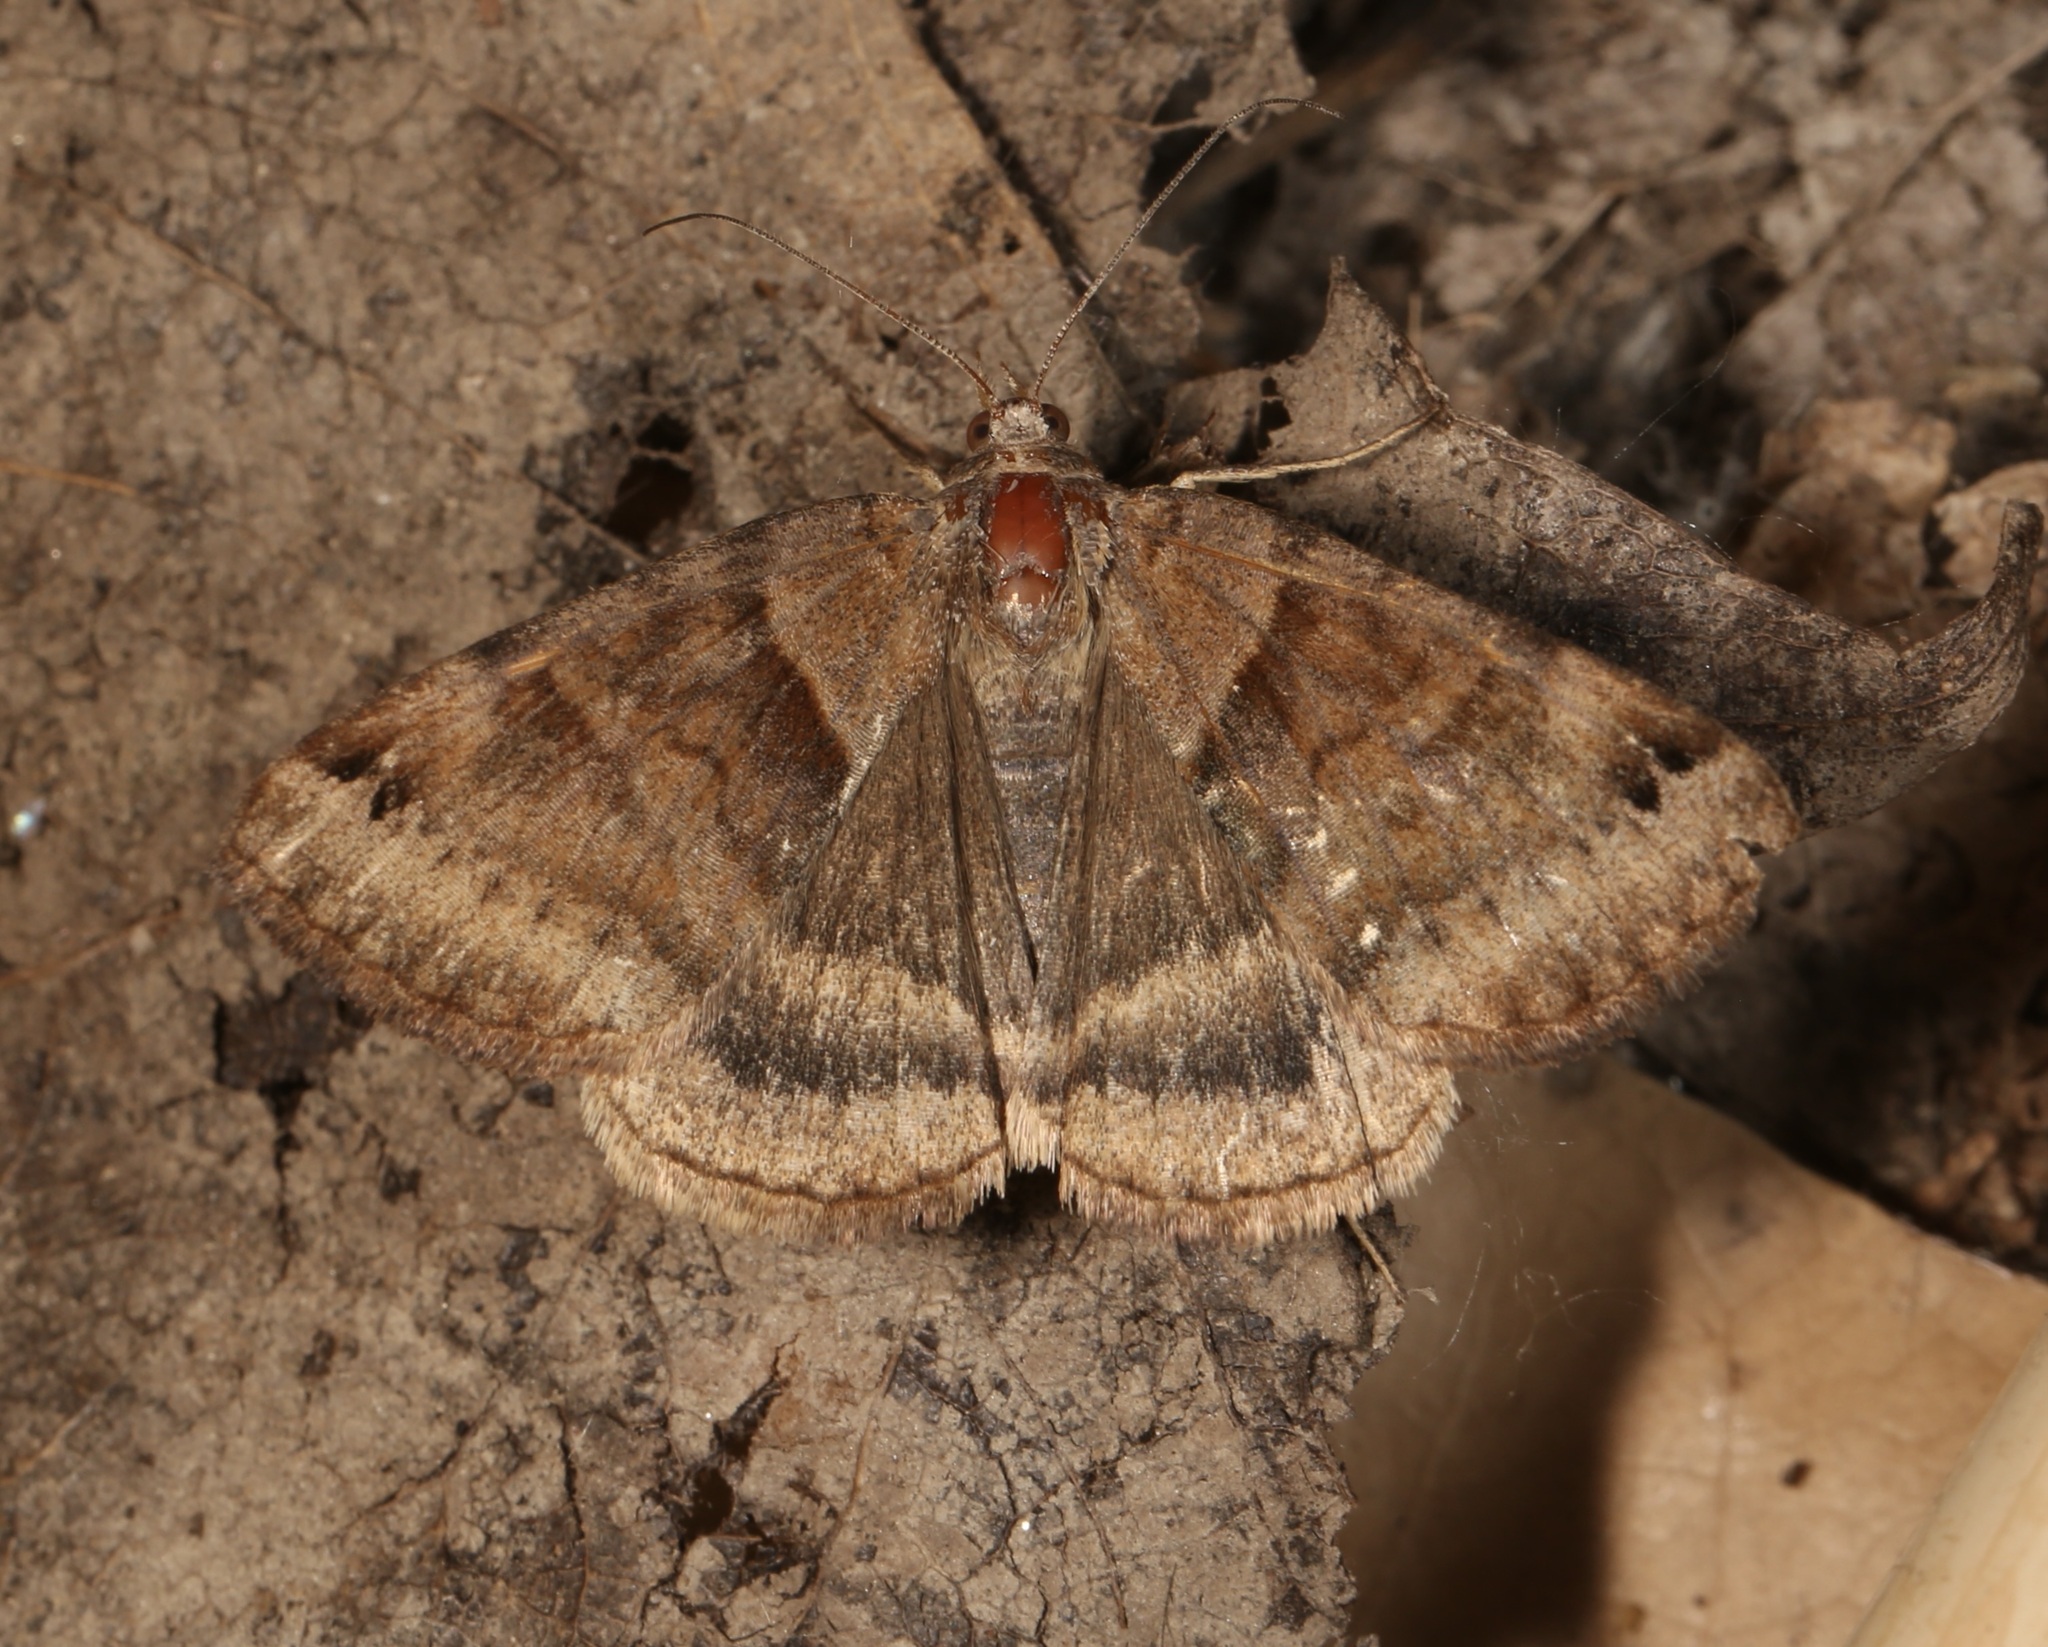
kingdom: Animalia
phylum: Arthropoda
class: Insecta
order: Lepidoptera
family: Erebidae
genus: Caenurgina
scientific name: Caenurgina crassiuscula
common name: Double-barred
